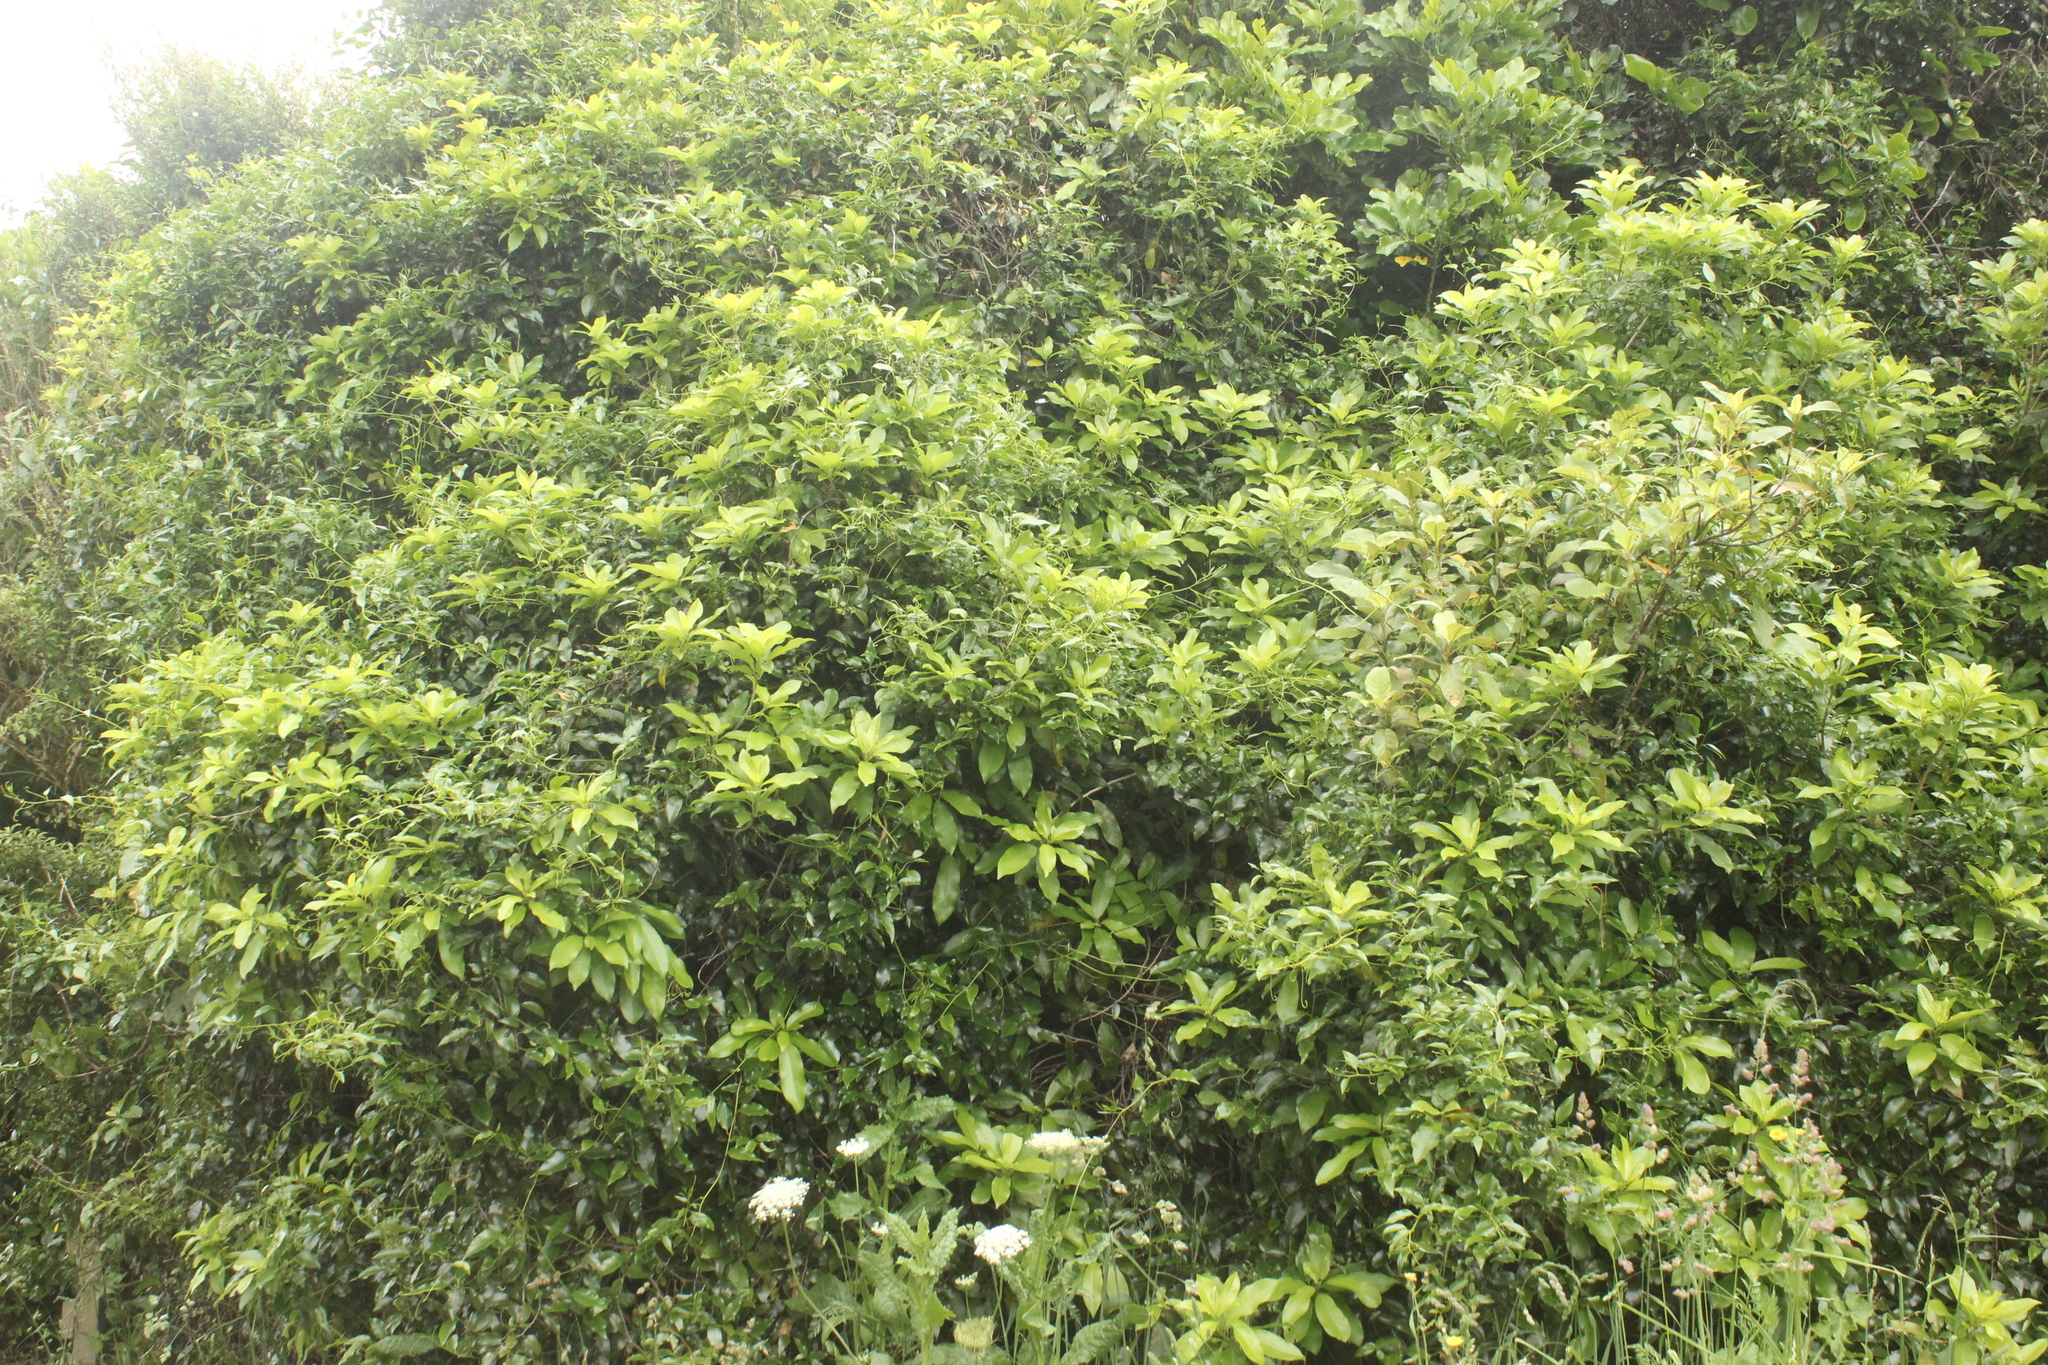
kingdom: Plantae
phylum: Tracheophyta
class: Magnoliopsida
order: Malpighiales
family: Passifloraceae
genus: Passiflora
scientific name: Passiflora tetrandra
